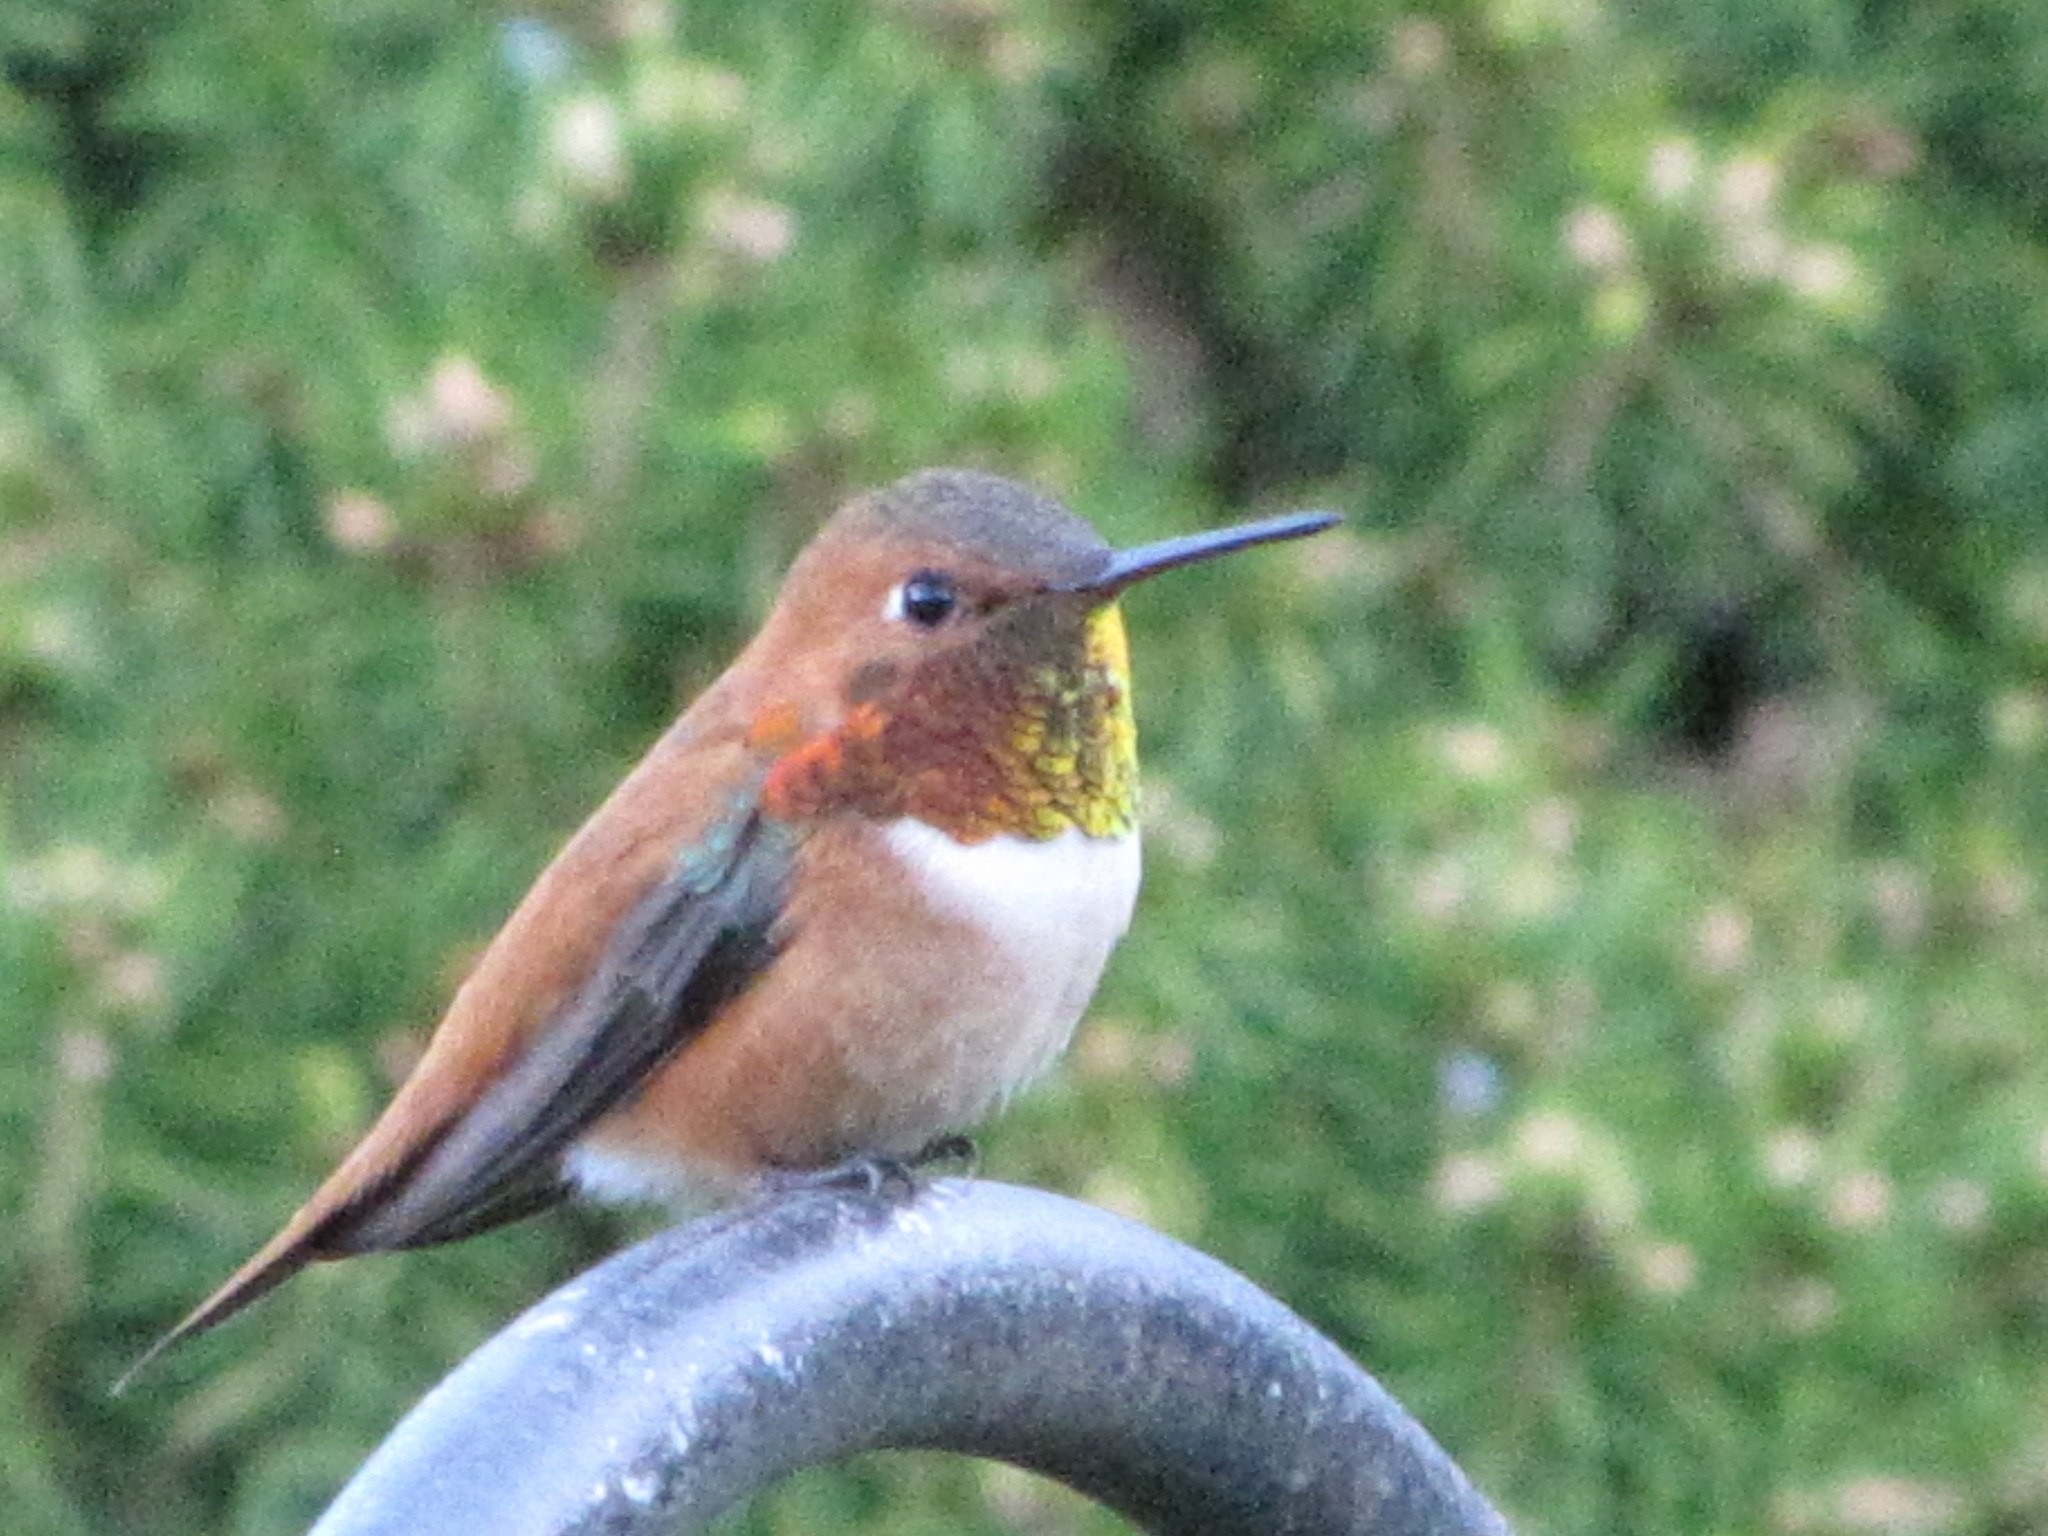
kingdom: Animalia
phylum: Chordata
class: Aves
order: Apodiformes
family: Trochilidae
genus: Selasphorus
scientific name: Selasphorus rufus
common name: Rufous hummingbird
